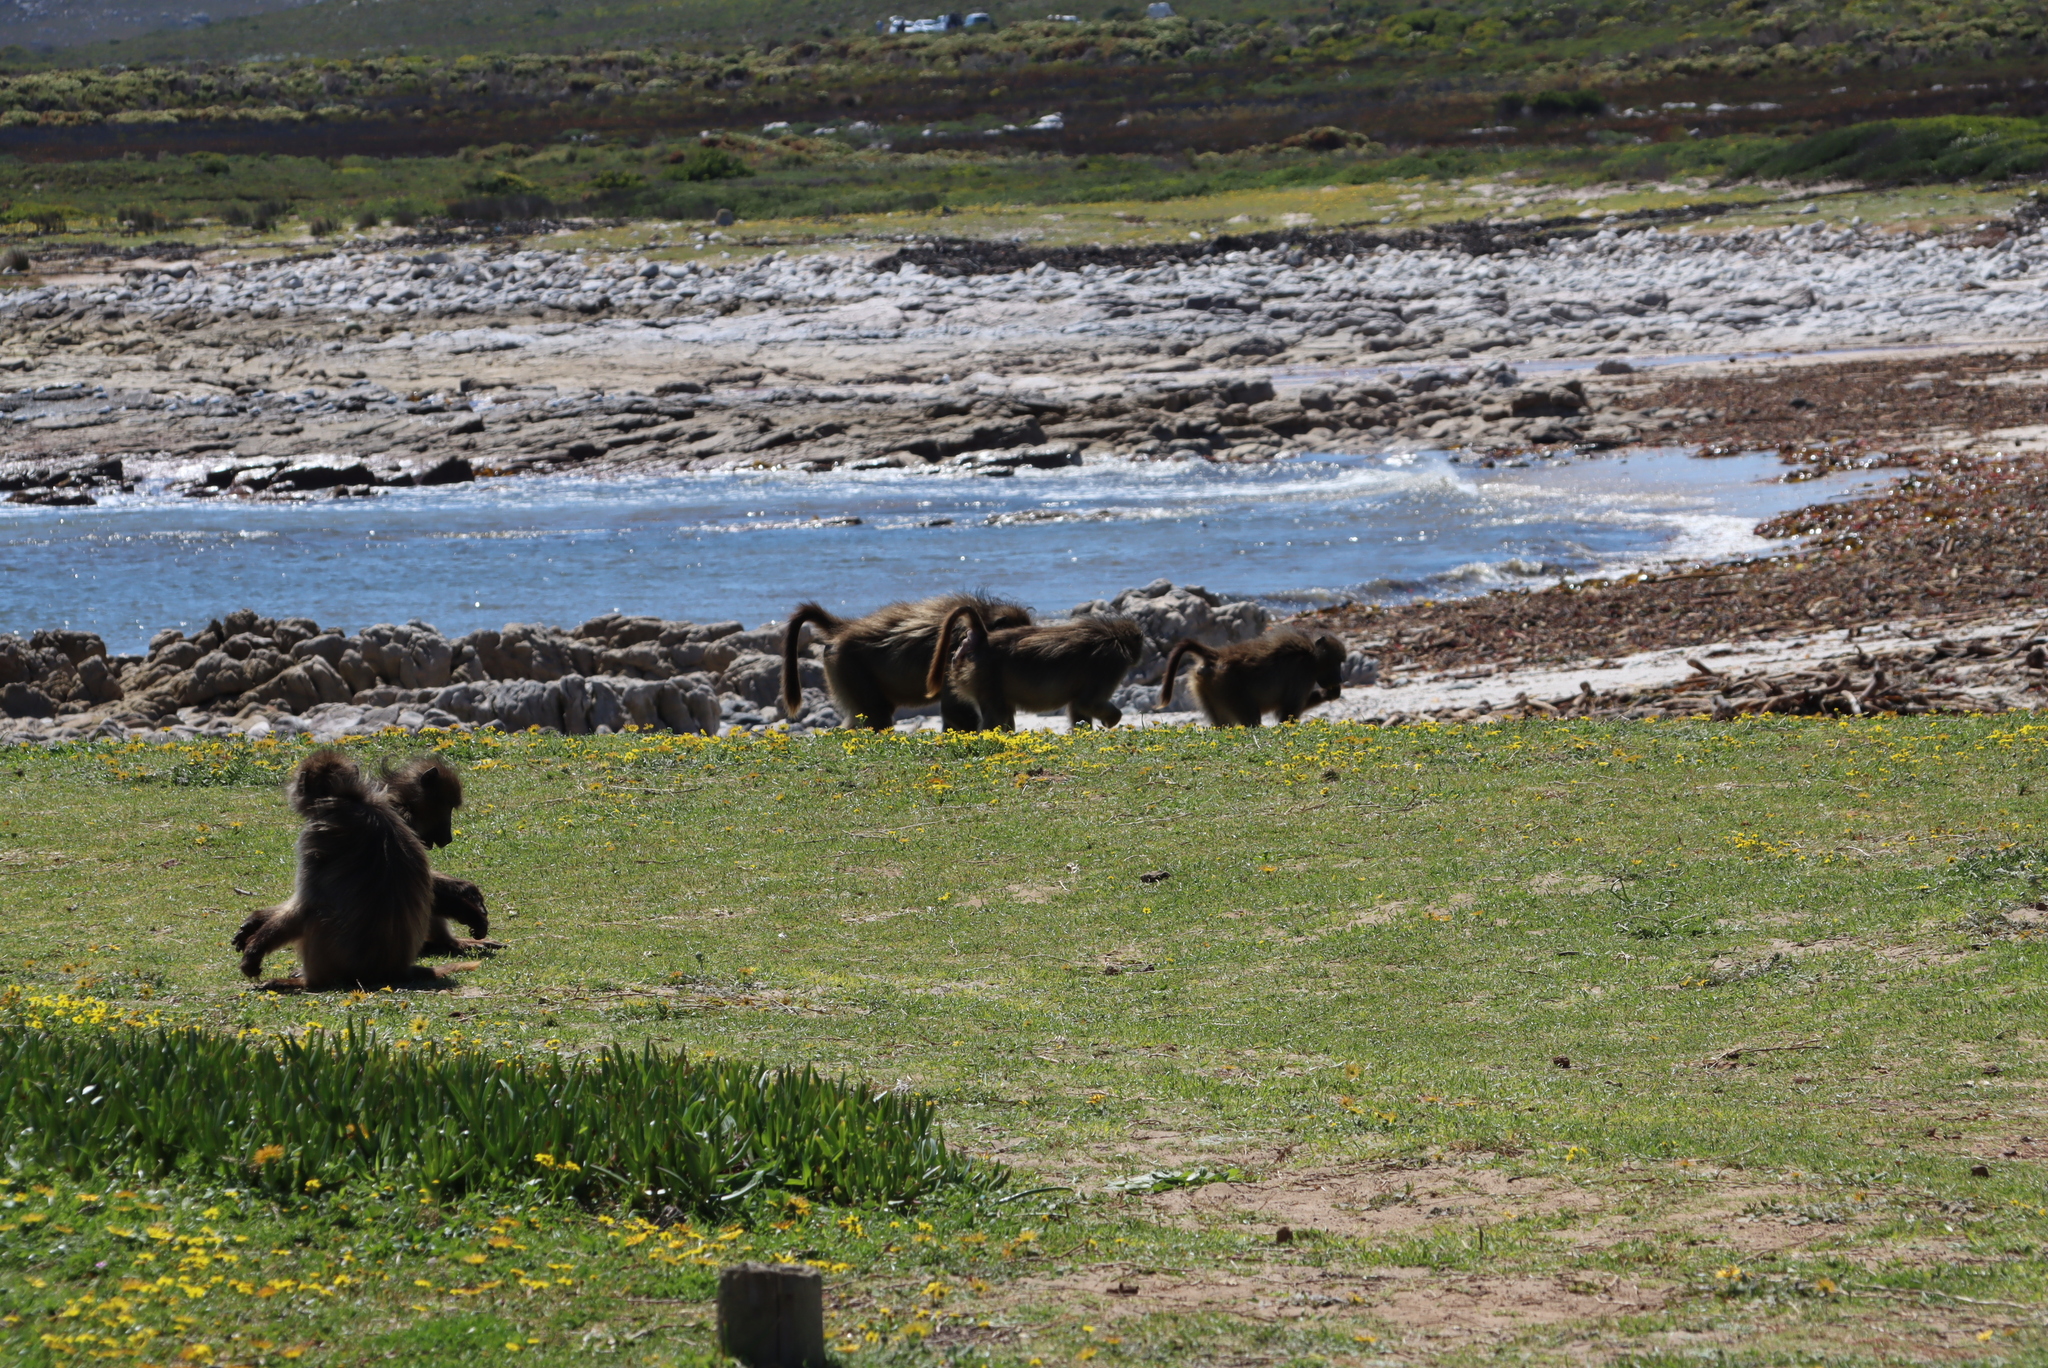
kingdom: Animalia
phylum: Chordata
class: Mammalia
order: Primates
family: Cercopithecidae
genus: Papio
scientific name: Papio ursinus
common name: Chacma baboon
